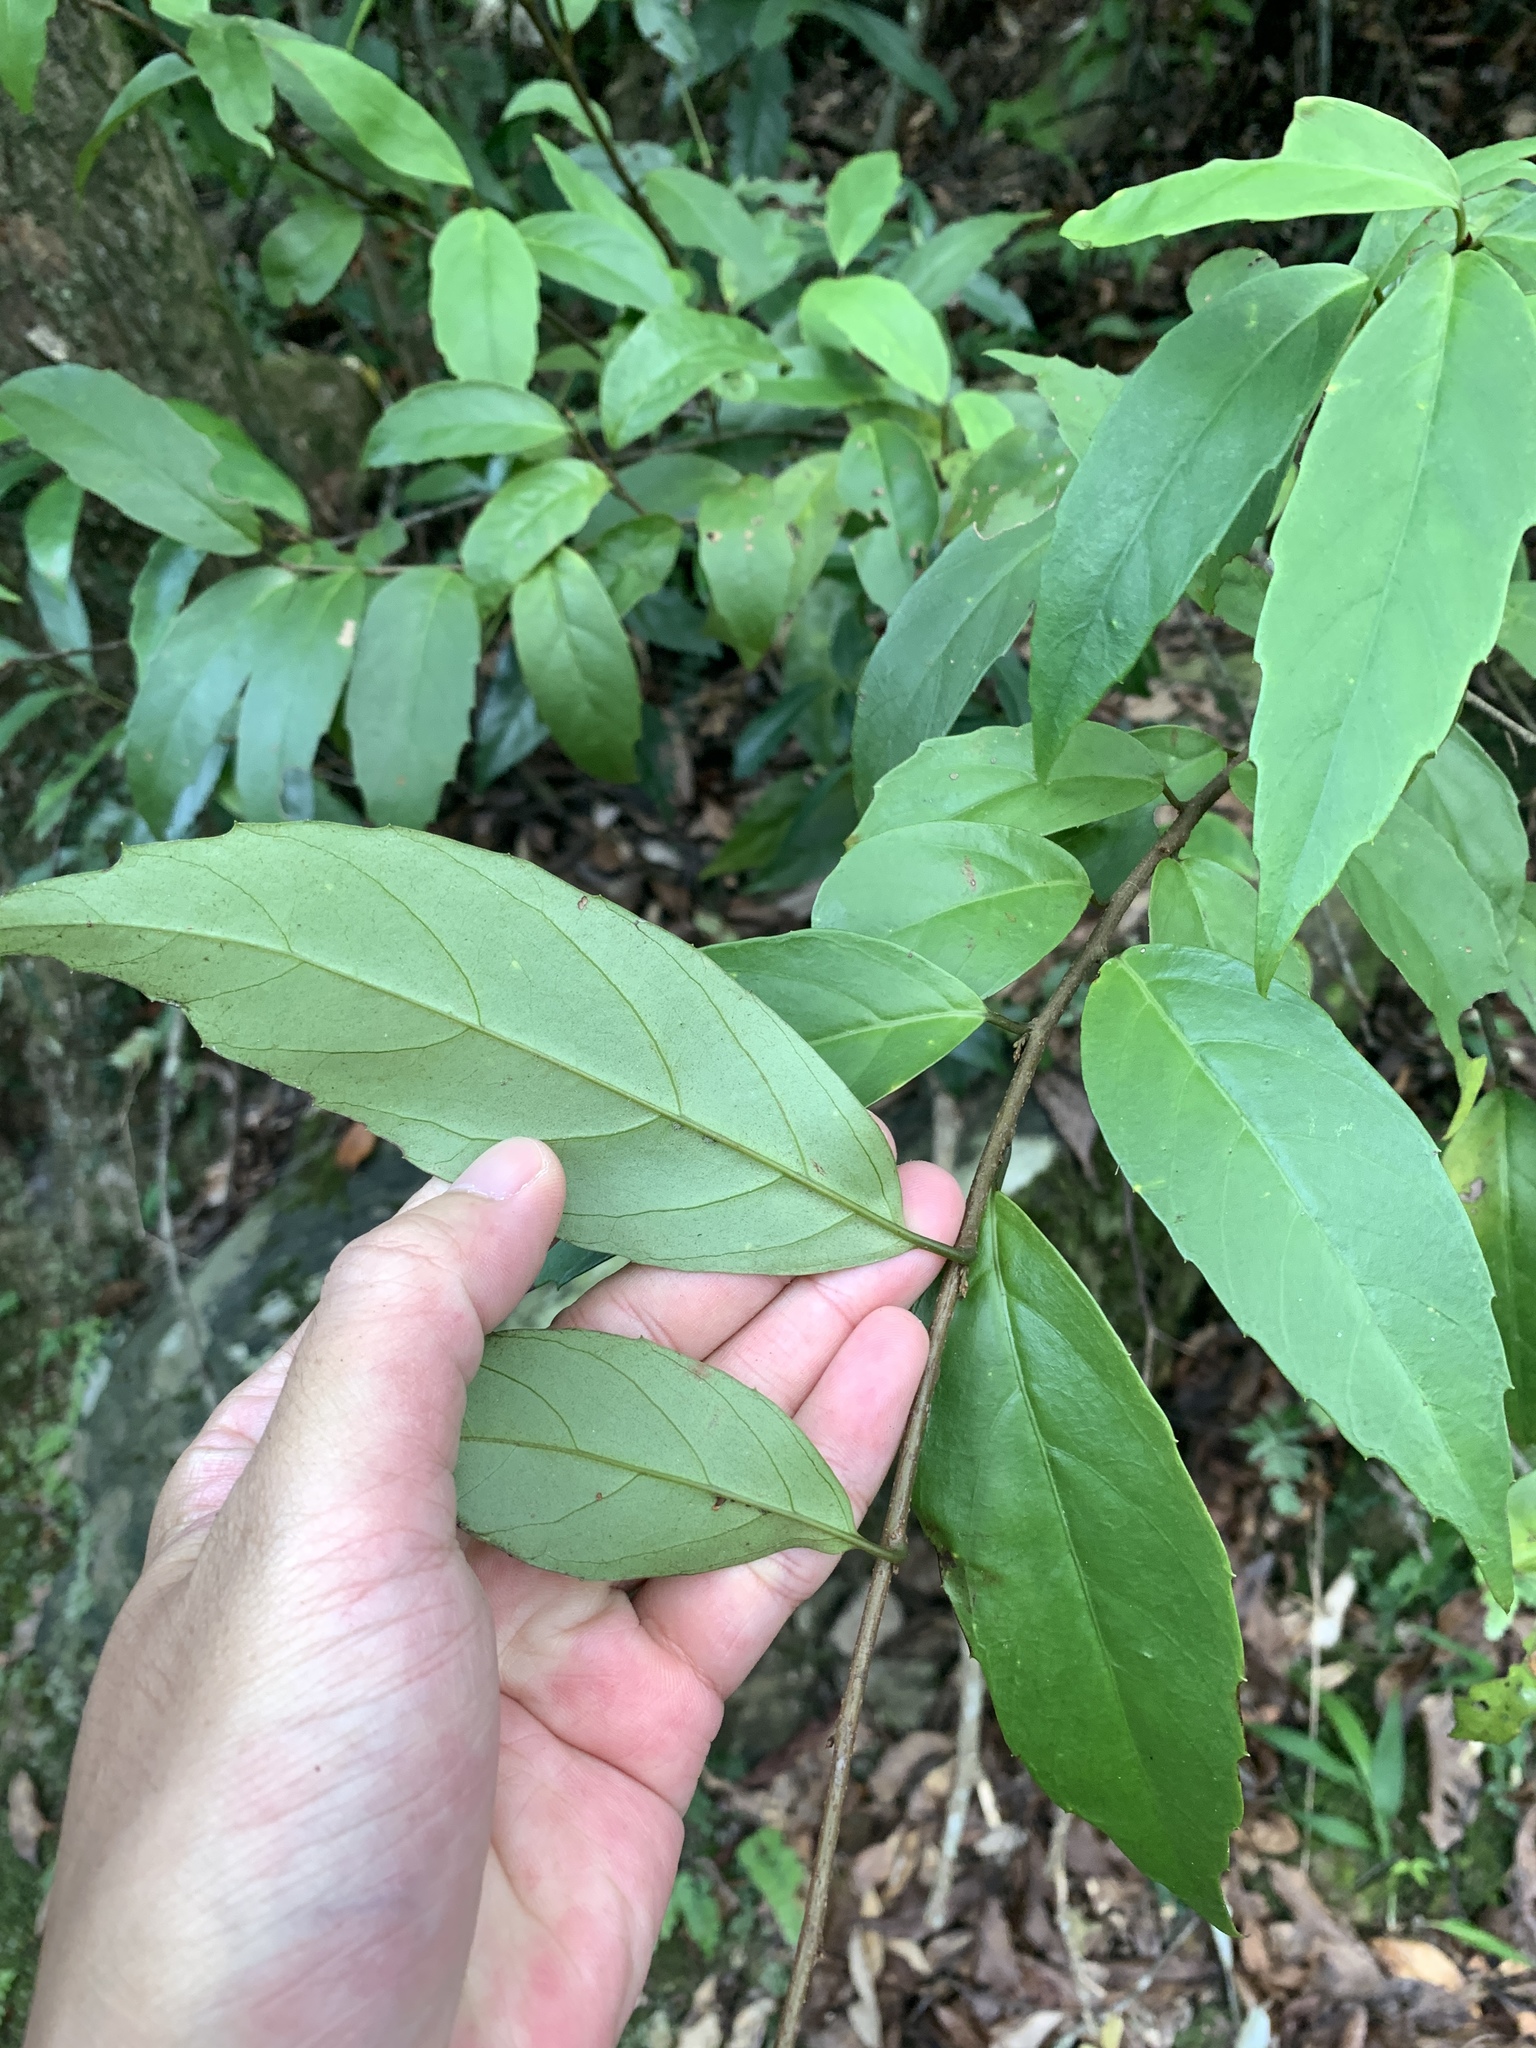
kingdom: Plantae
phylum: Tracheophyta
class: Magnoliopsida
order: Ericales
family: Primulaceae
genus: Maesa
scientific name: Maesa japonica
